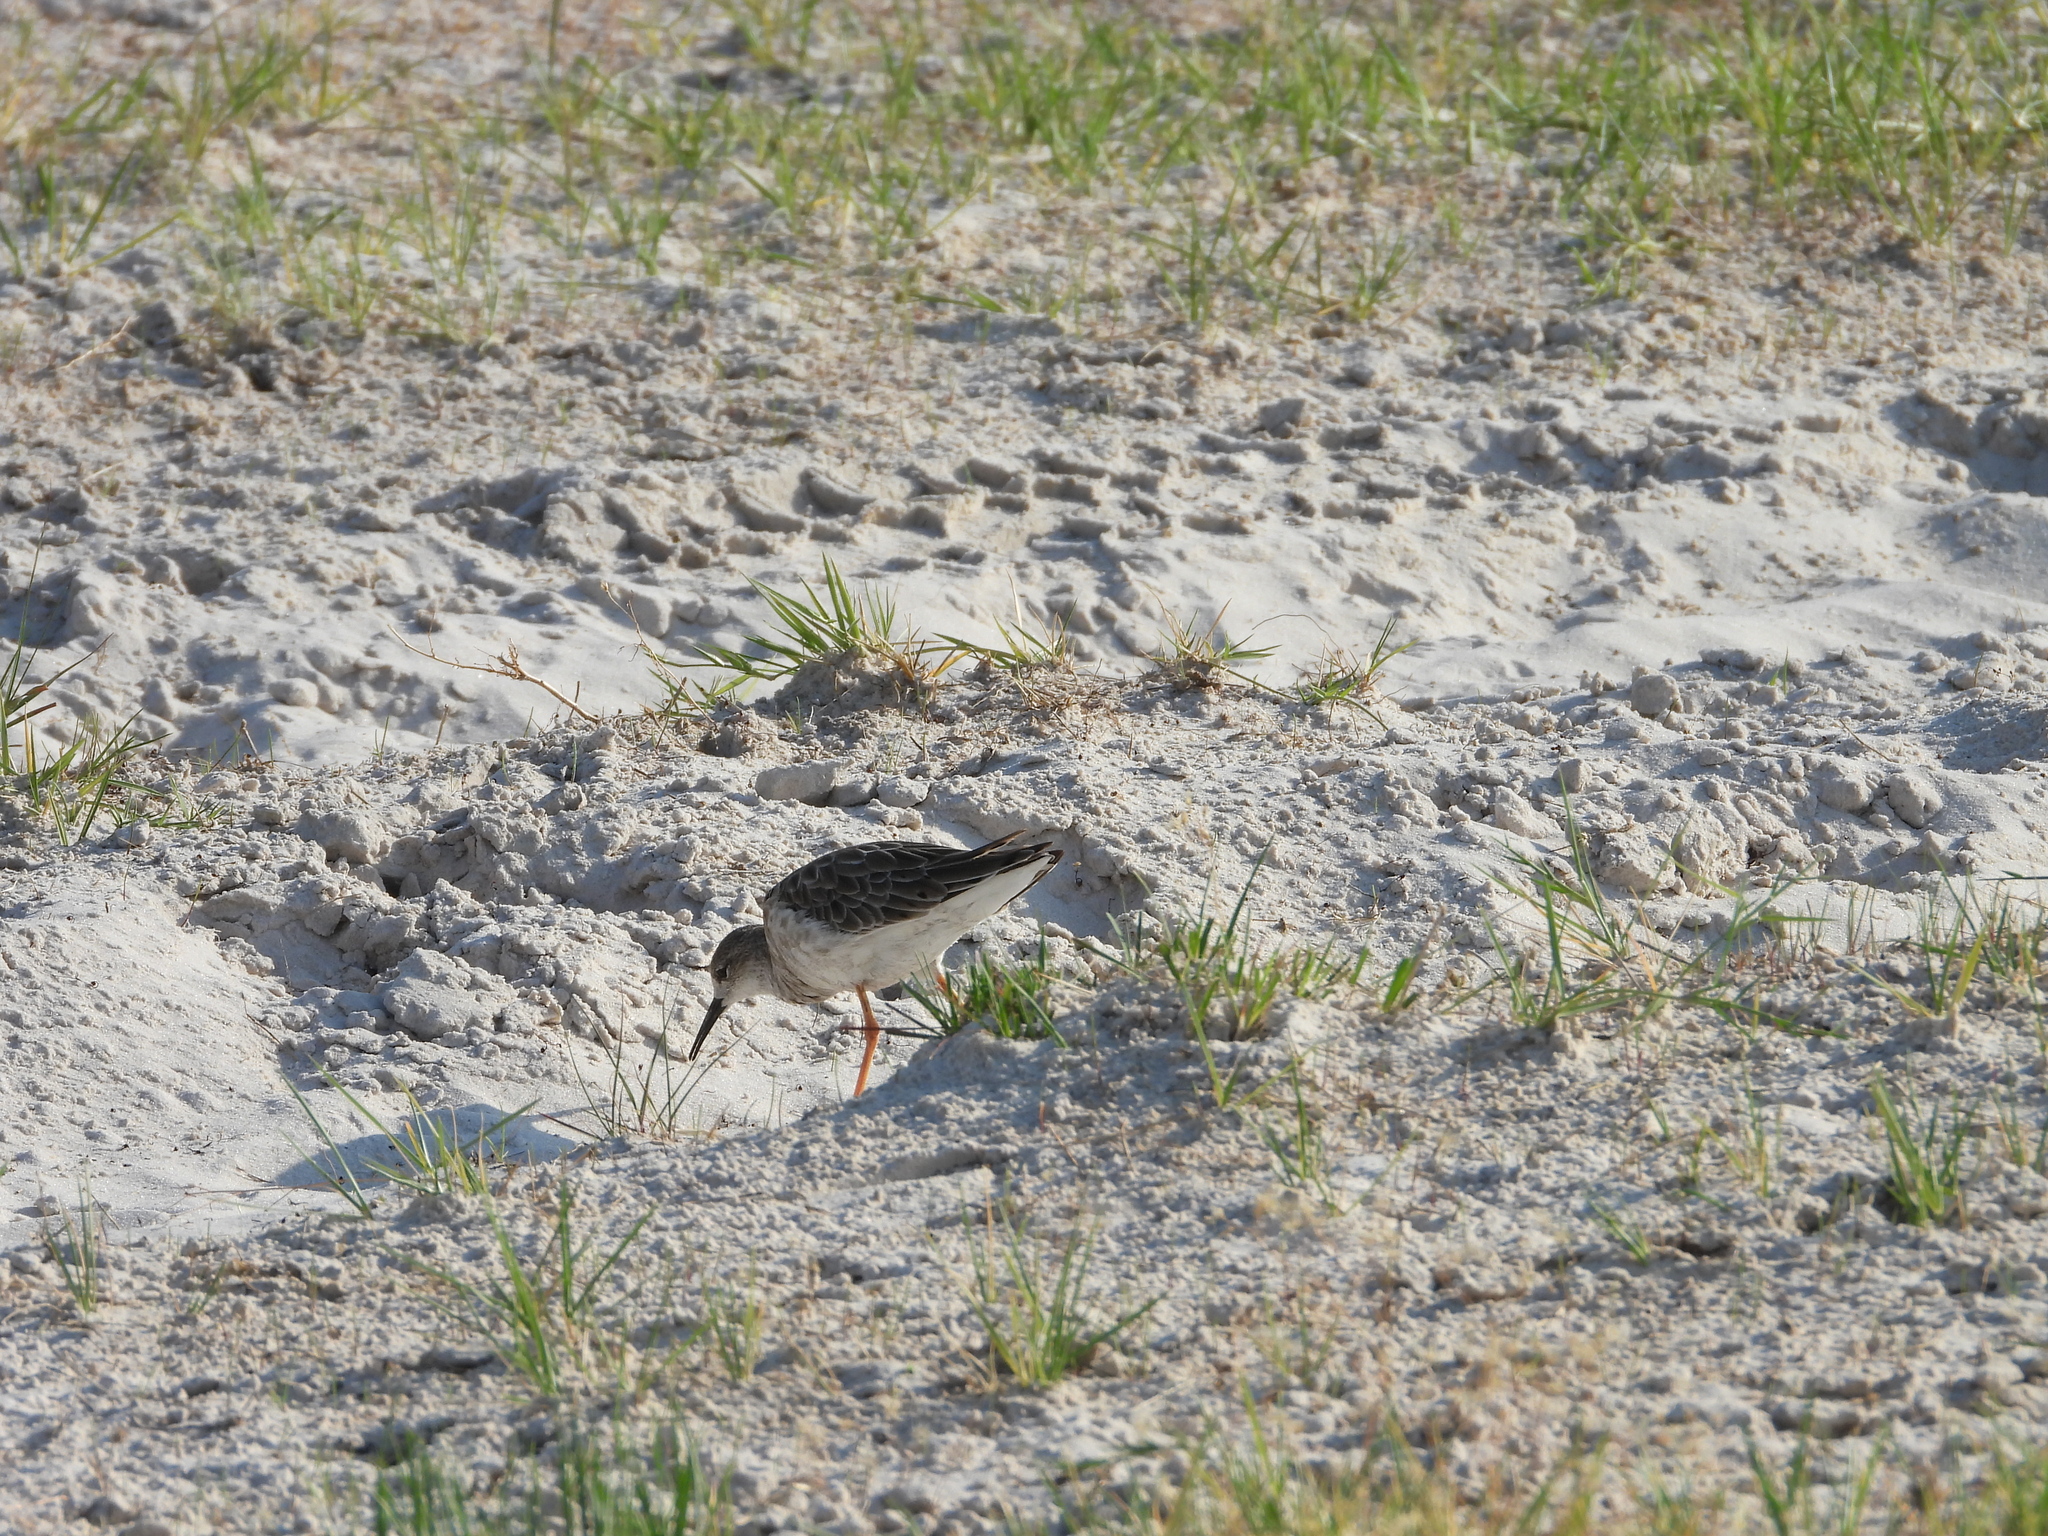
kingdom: Animalia
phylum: Chordata
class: Aves
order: Charadriiformes
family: Scolopacidae
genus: Calidris
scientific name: Calidris pugnax
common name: Ruff
